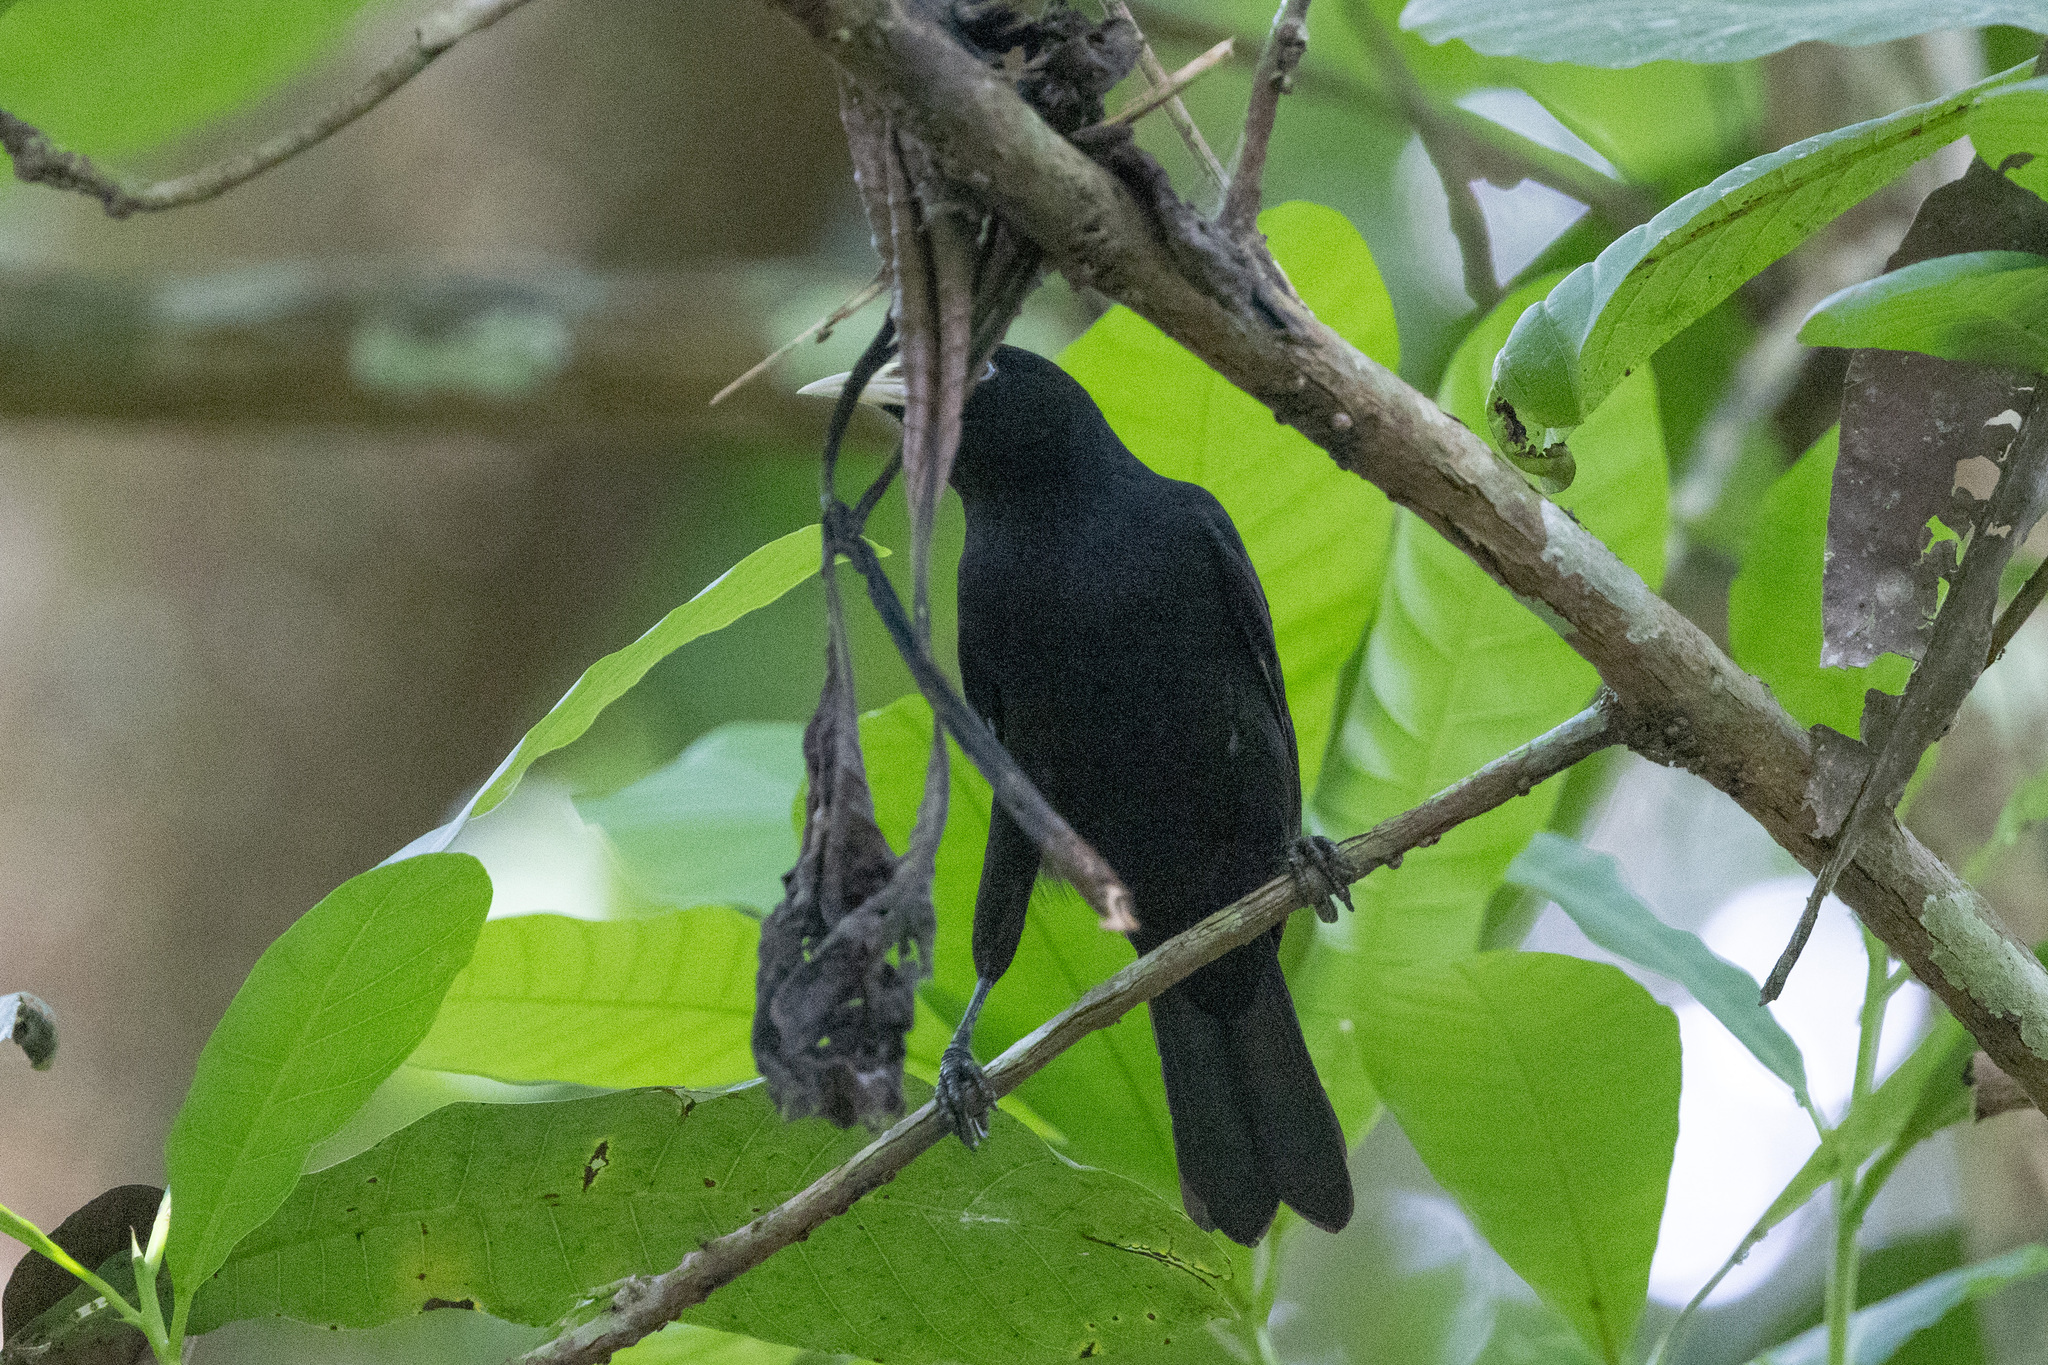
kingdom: Animalia
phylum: Chordata
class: Aves
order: Passeriformes
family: Icteridae
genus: Cacicus
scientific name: Cacicus uropygialis
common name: Scarlet-rumped cacique
